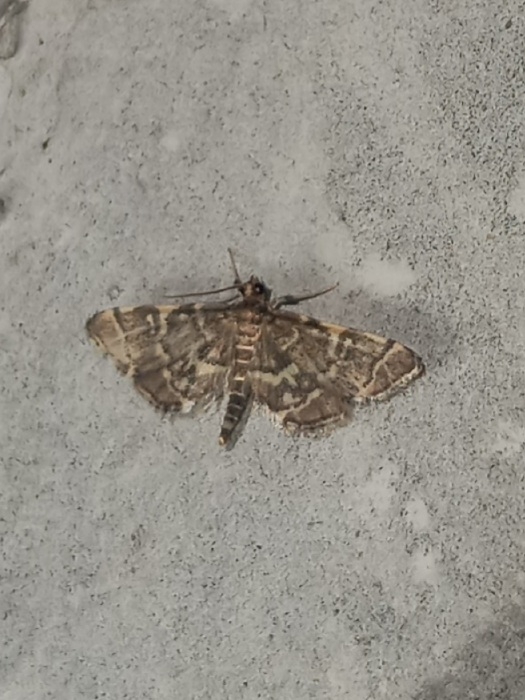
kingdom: Animalia
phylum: Arthropoda
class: Insecta
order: Lepidoptera
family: Crambidae
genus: Anageshna
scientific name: Anageshna primordialis
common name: Yellow-spotted webworm moth
